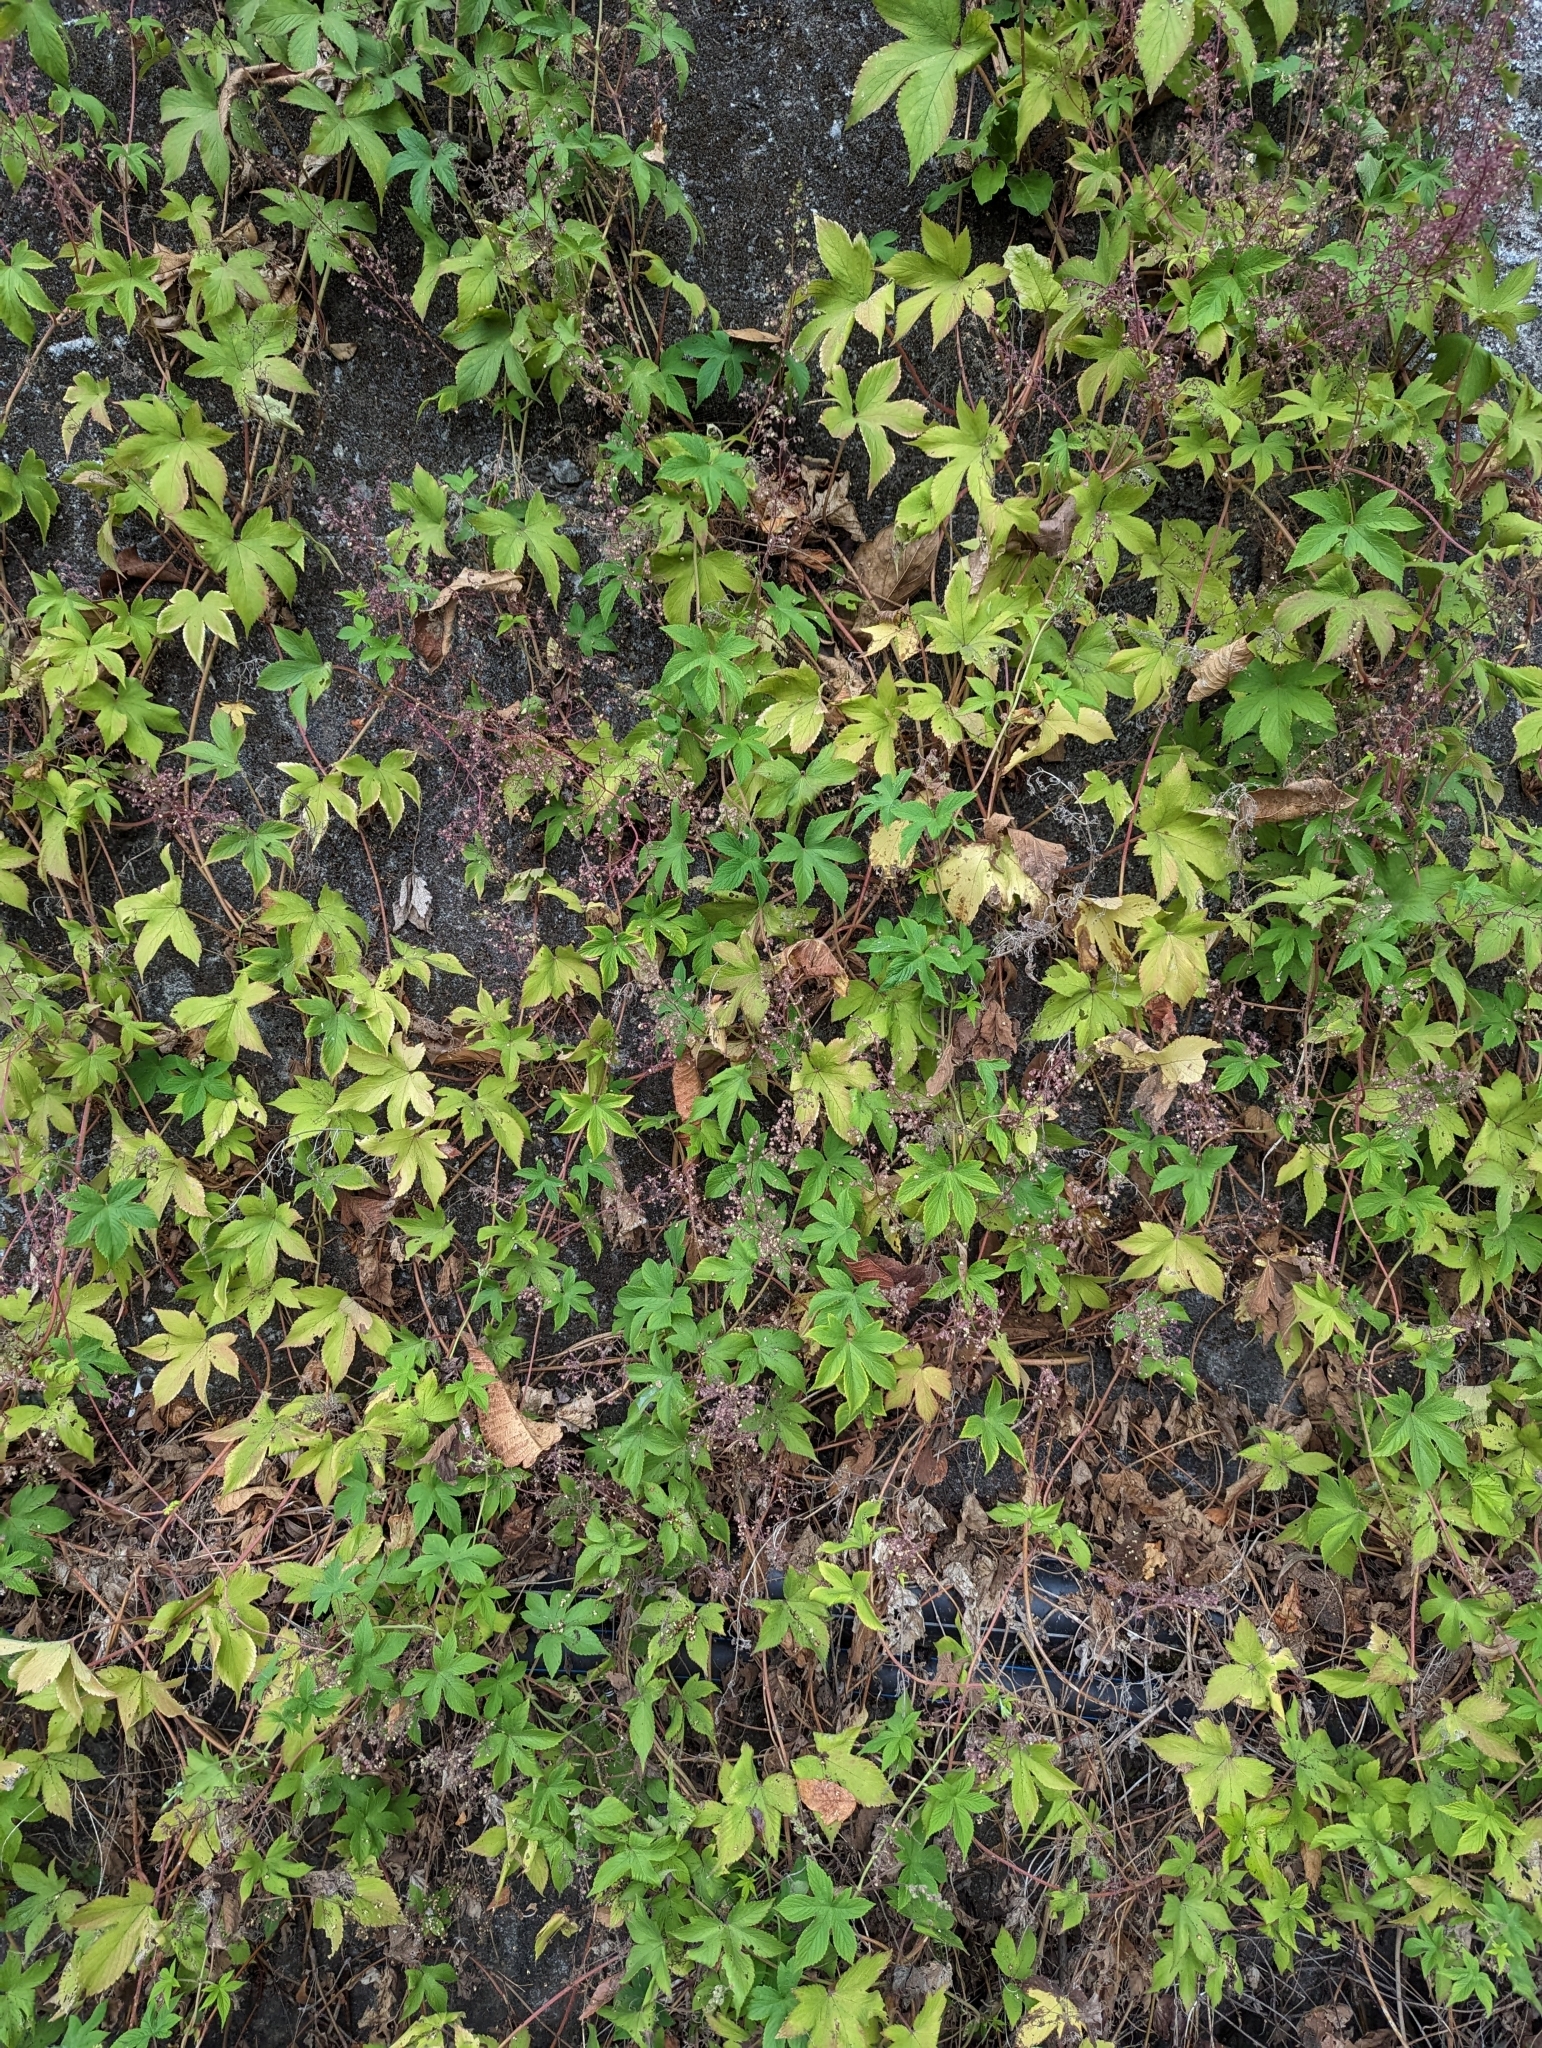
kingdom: Plantae
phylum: Tracheophyta
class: Magnoliopsida
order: Rosales
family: Cannabaceae
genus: Humulus
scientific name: Humulus scandens
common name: Japanese hop
